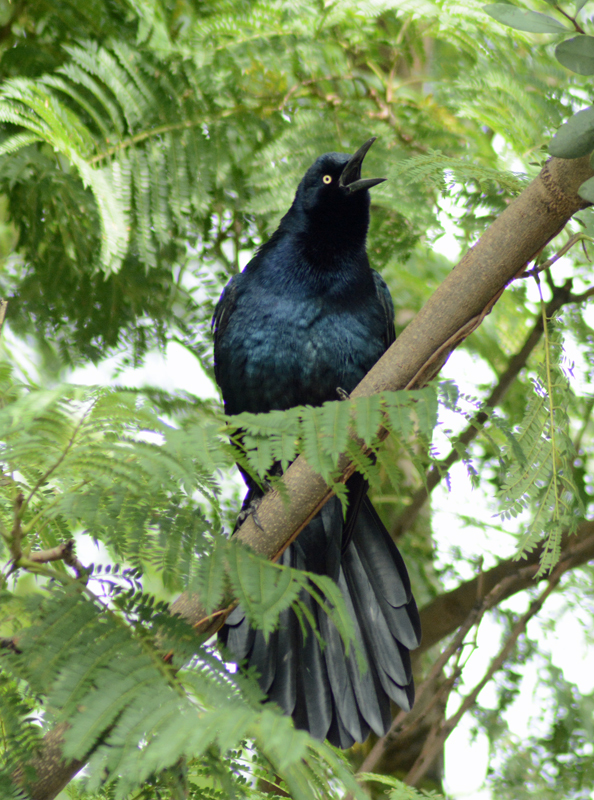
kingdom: Animalia
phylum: Chordata
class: Aves
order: Passeriformes
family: Icteridae
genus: Quiscalus
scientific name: Quiscalus mexicanus
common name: Great-tailed grackle
